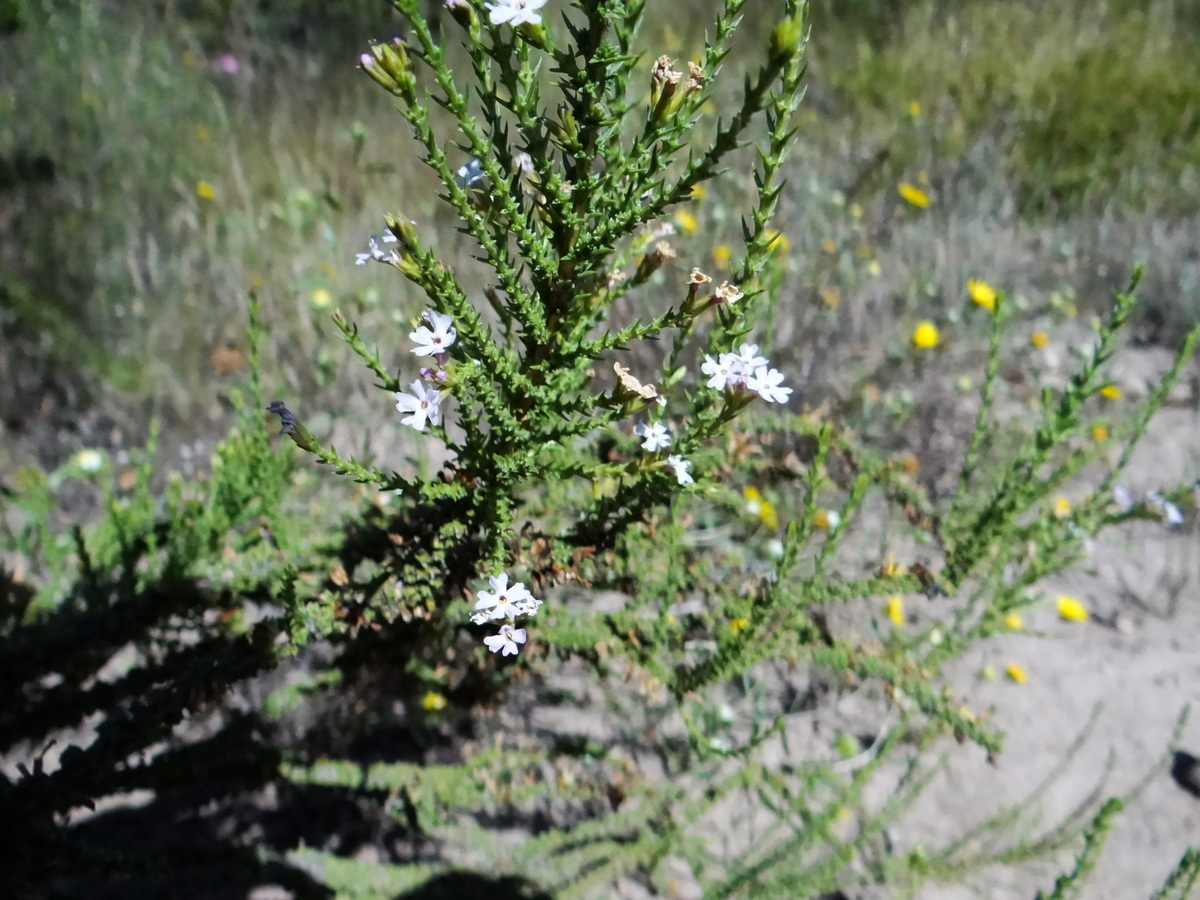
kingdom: Plantae
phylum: Tracheophyta
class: Magnoliopsida
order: Lamiales
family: Verbenaceae
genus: Junellia
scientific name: Junellia seriphioides
